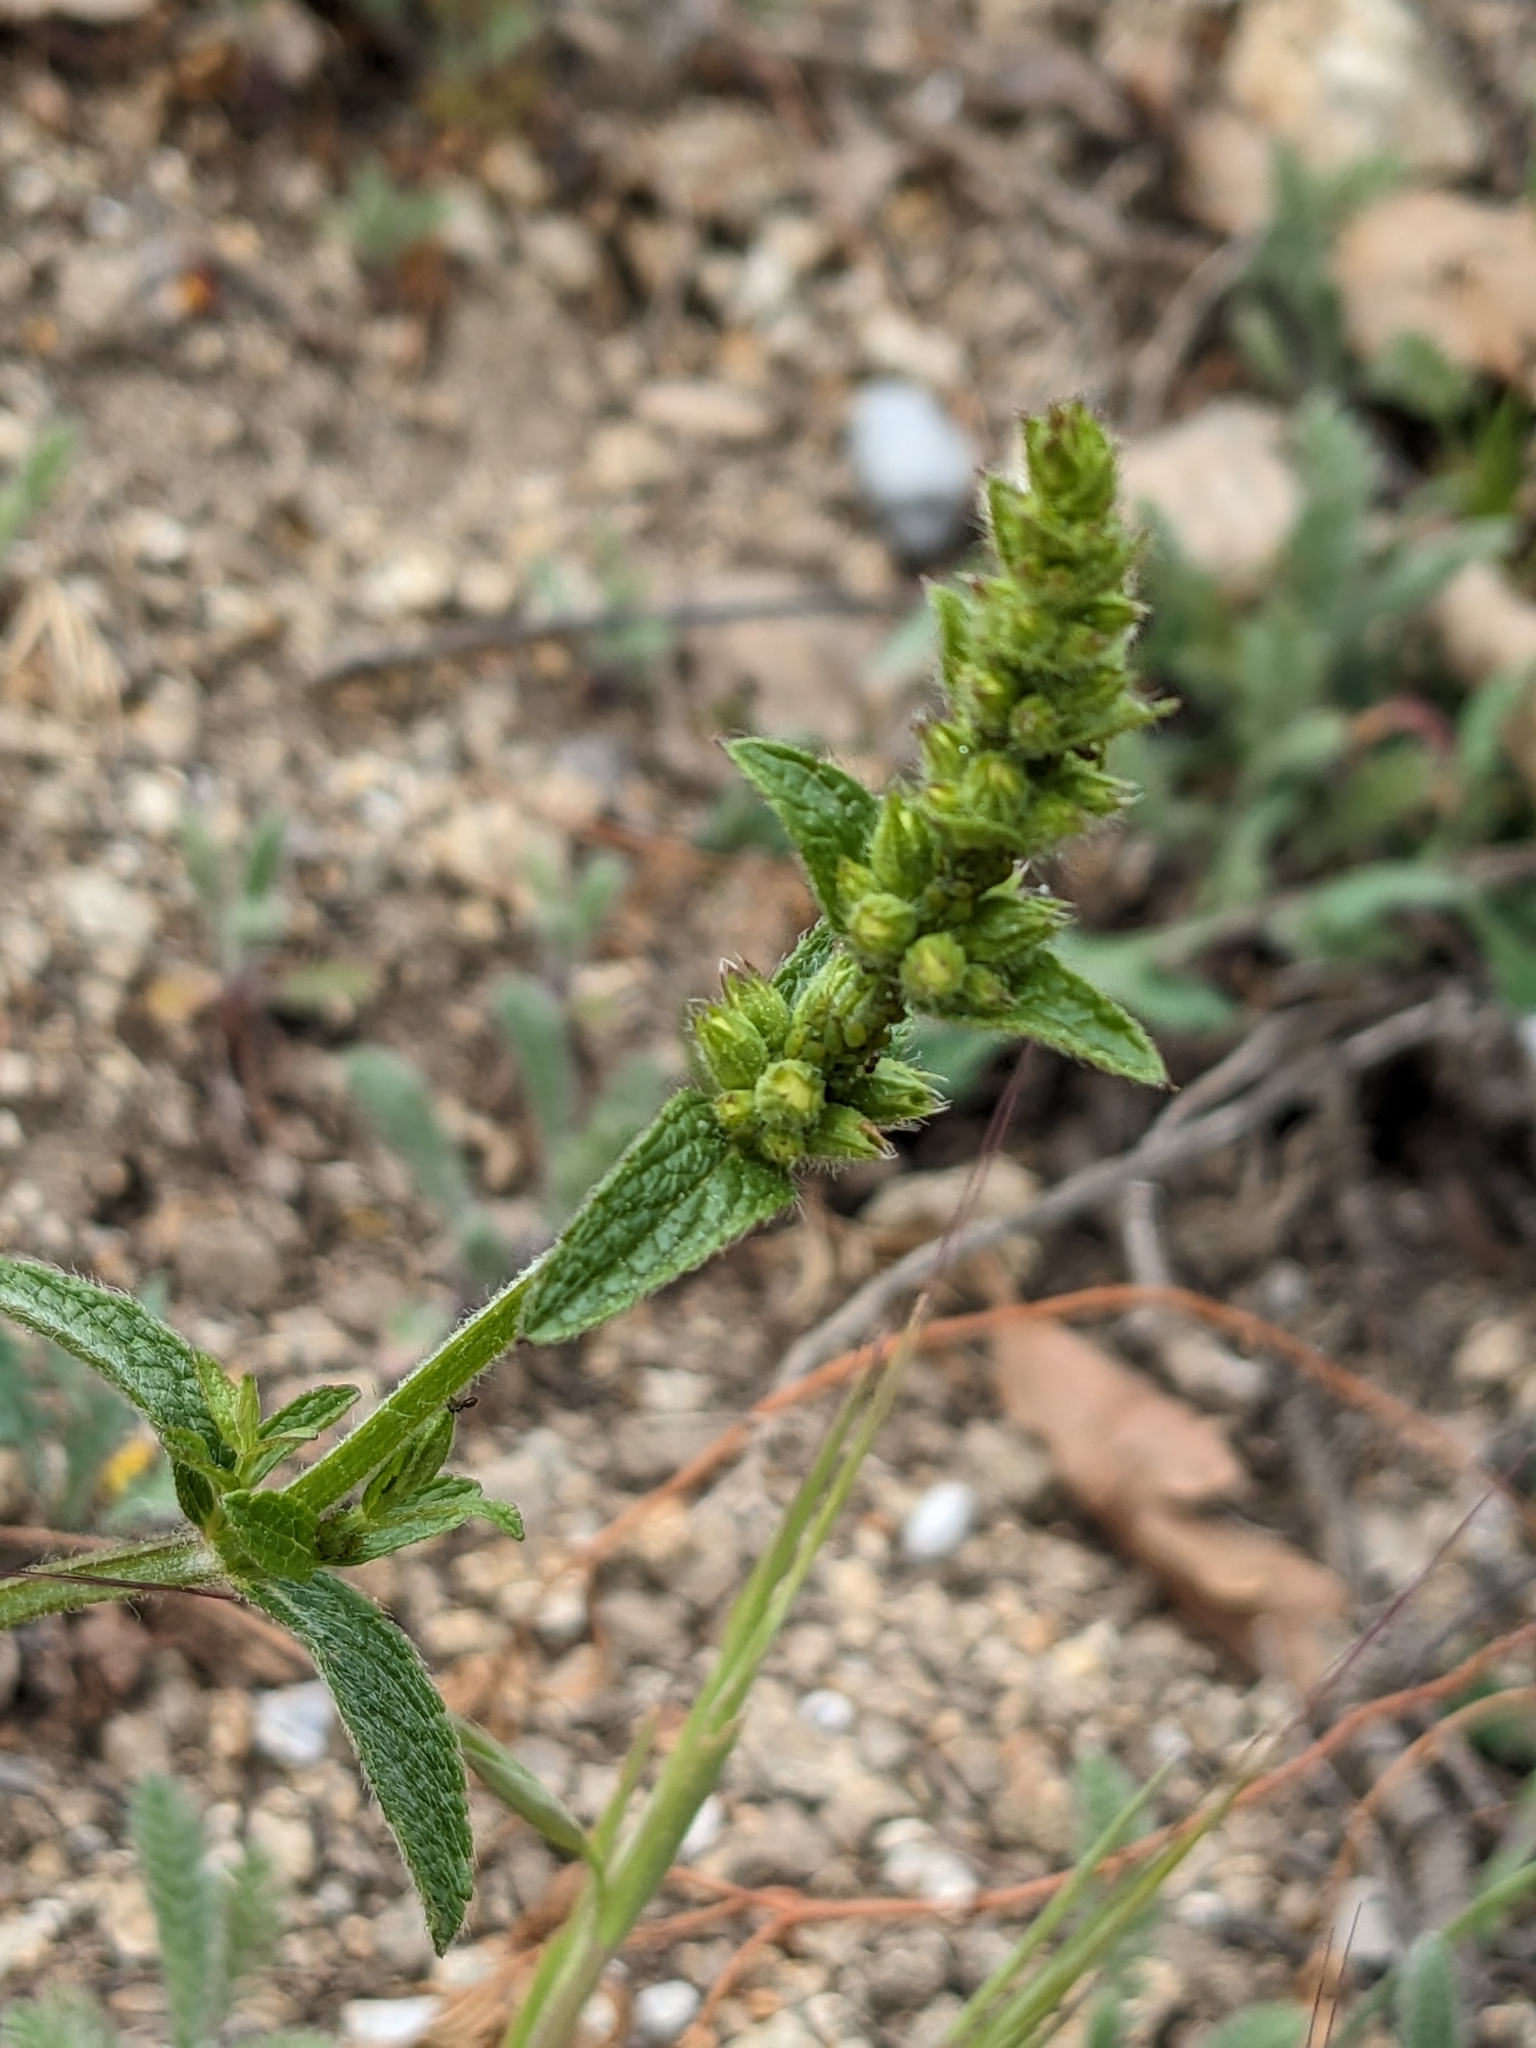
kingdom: Plantae
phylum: Tracheophyta
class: Magnoliopsida
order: Lamiales
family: Lamiaceae
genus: Stachys
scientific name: Stachys recta
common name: Perennial yellow-woundwort
